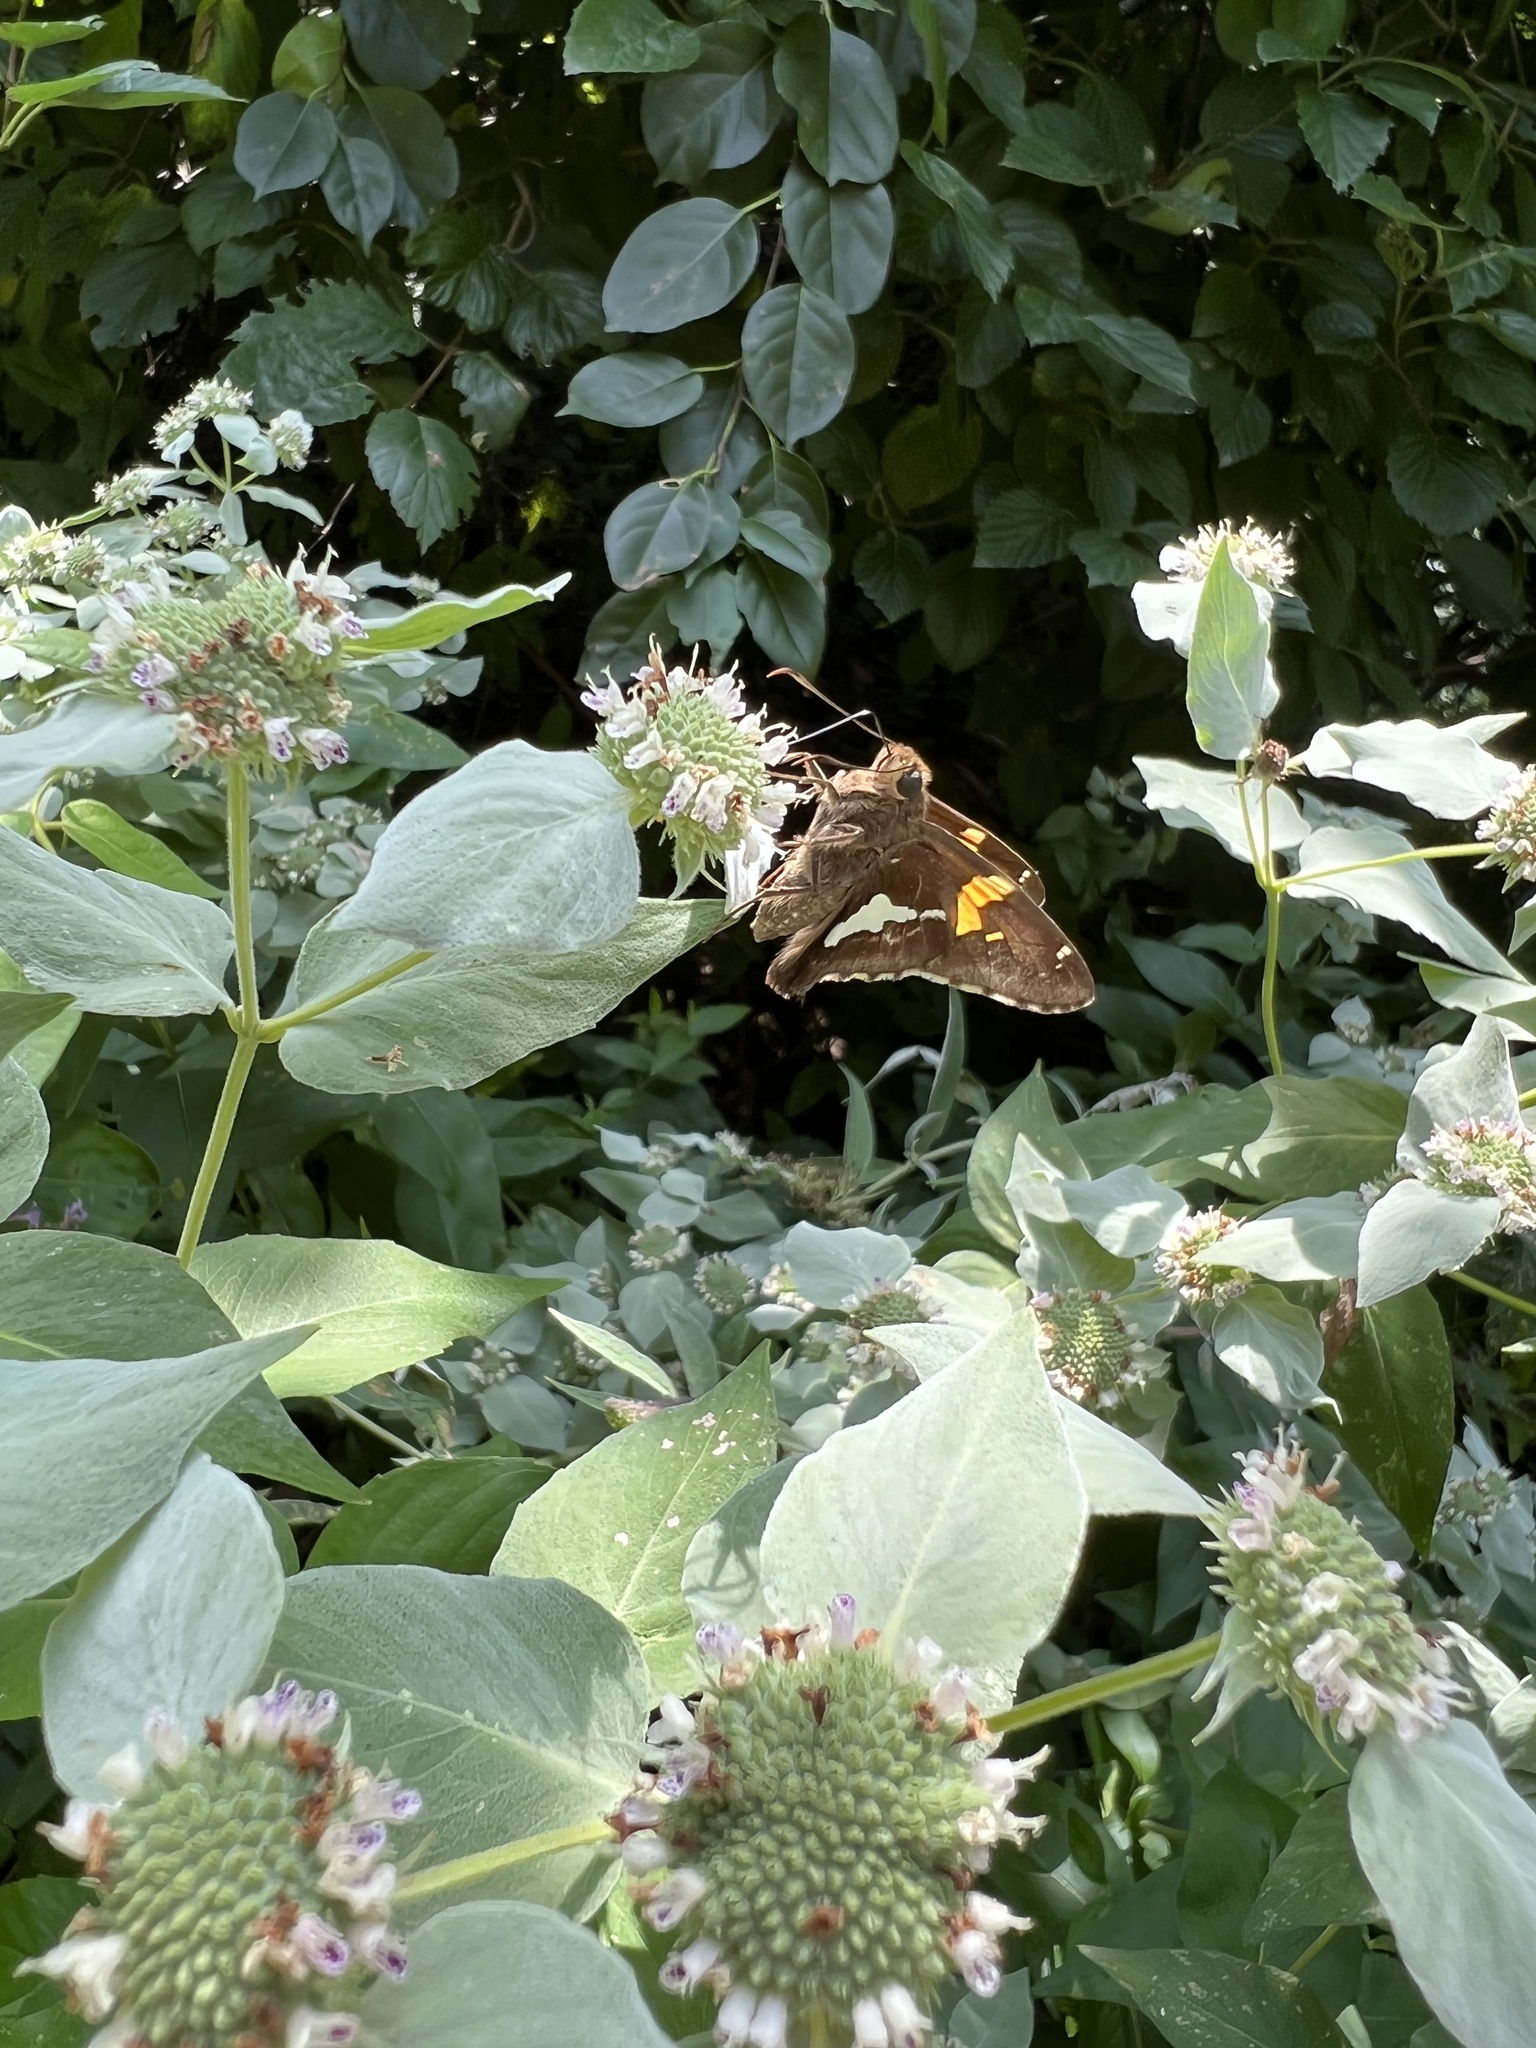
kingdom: Animalia
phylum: Arthropoda
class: Insecta
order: Lepidoptera
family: Hesperiidae
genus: Epargyreus
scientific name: Epargyreus clarus
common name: Silver-spotted skipper
